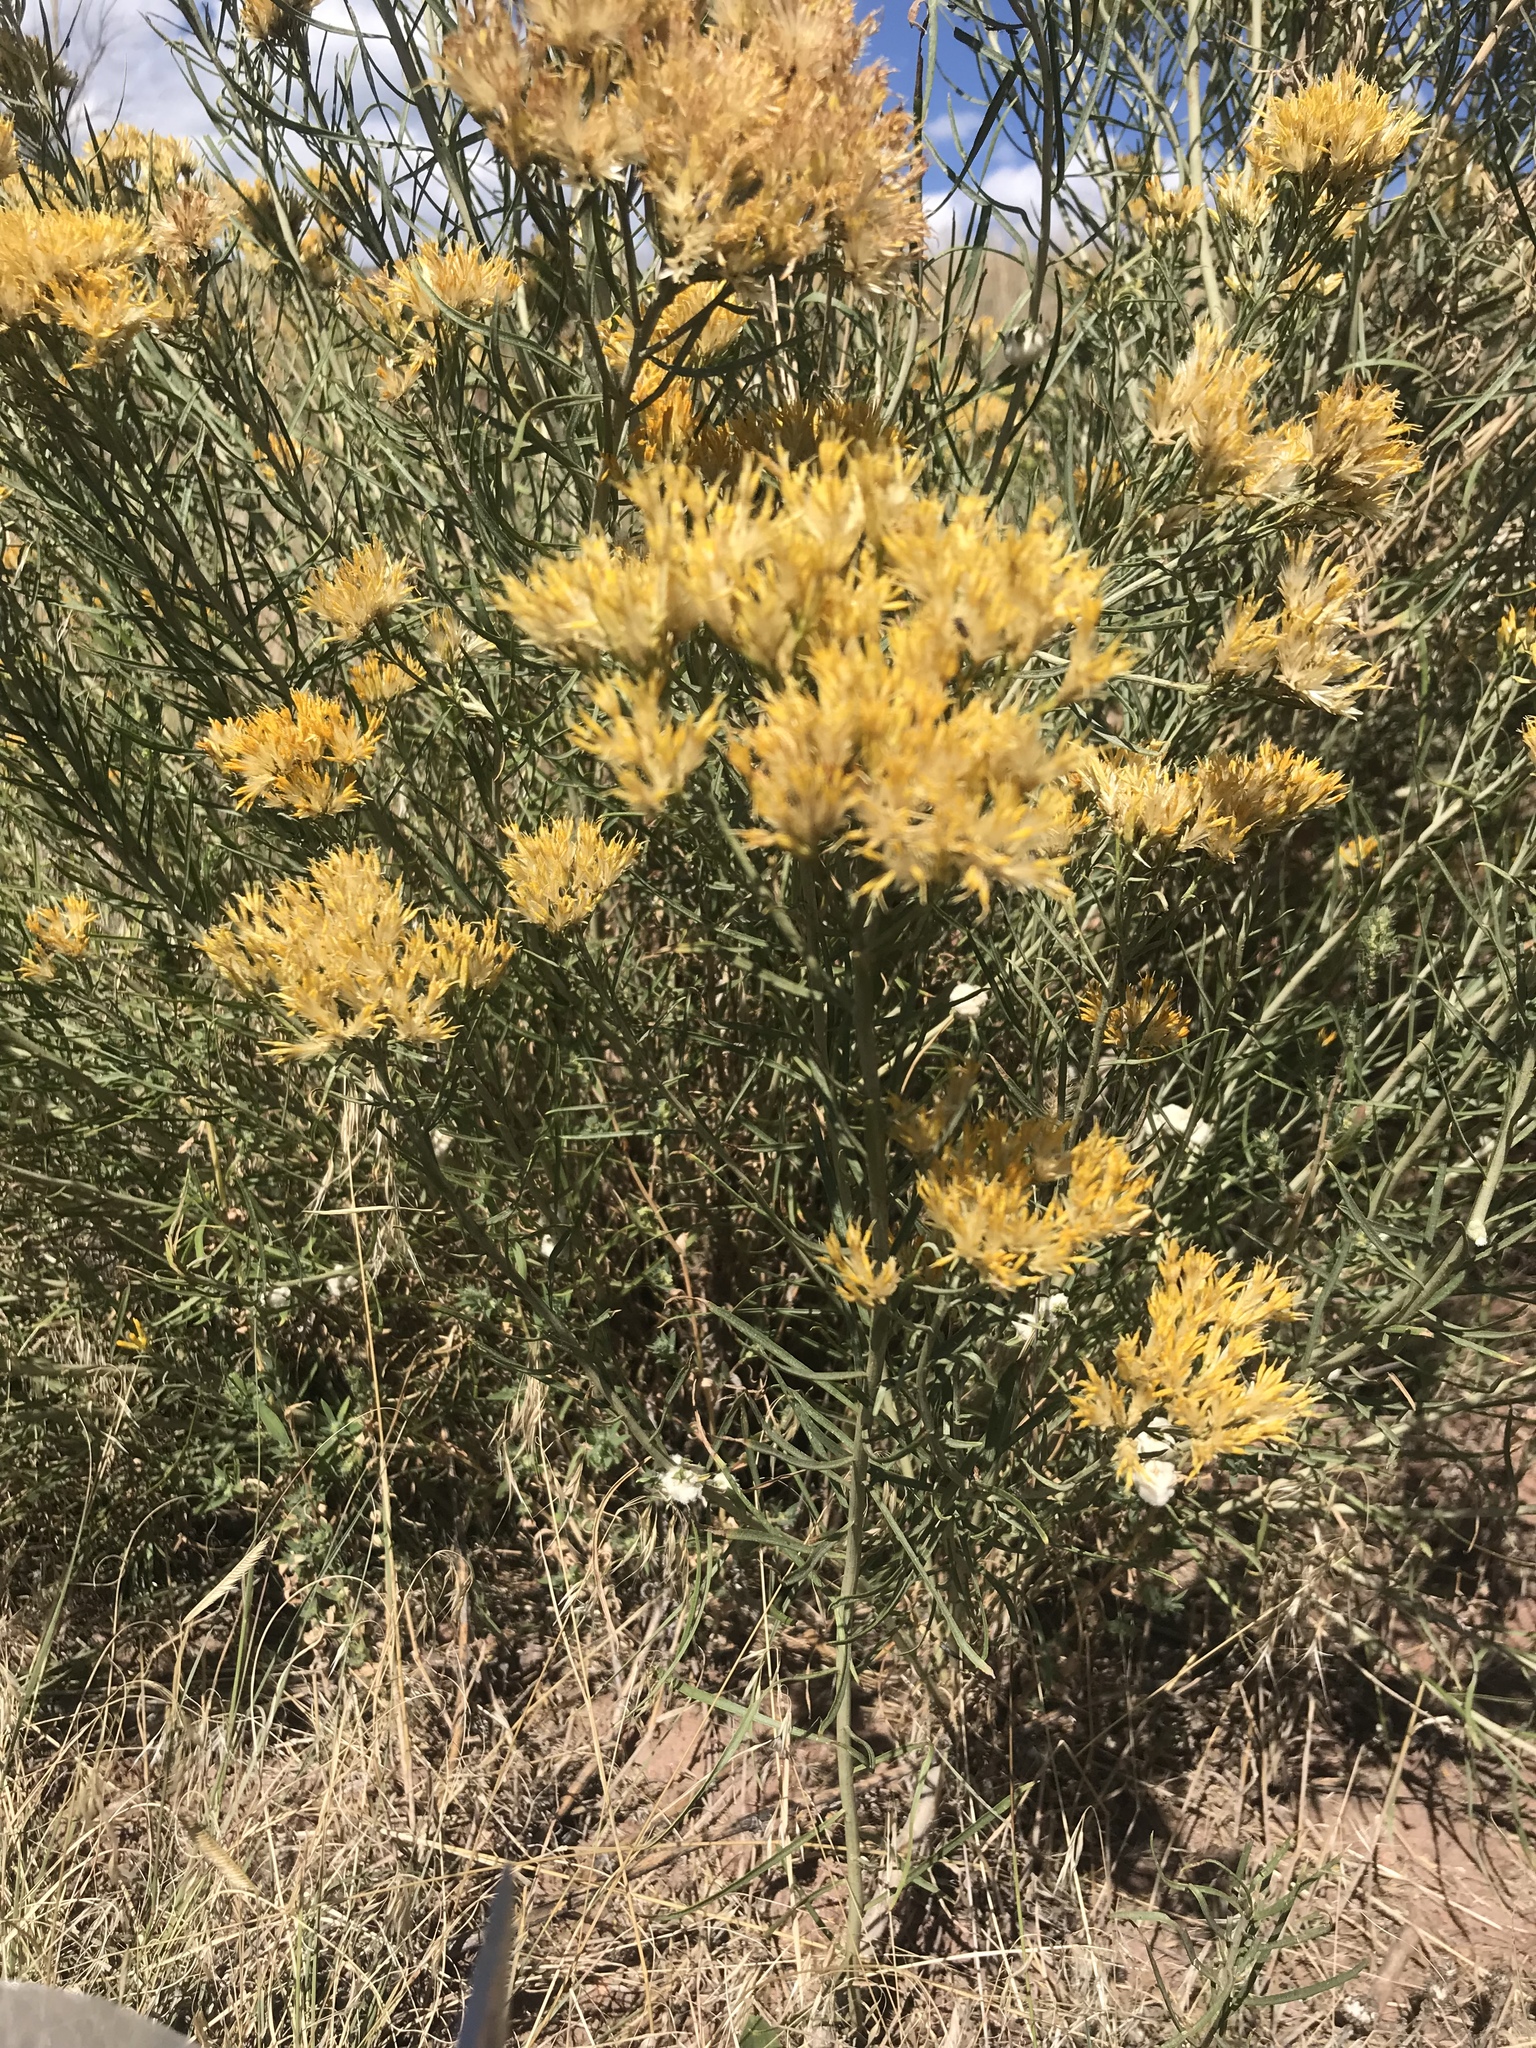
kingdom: Plantae
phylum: Tracheophyta
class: Magnoliopsida
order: Asterales
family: Asteraceae
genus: Ericameria
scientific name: Ericameria nauseosa
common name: Rubber rabbitbrush
